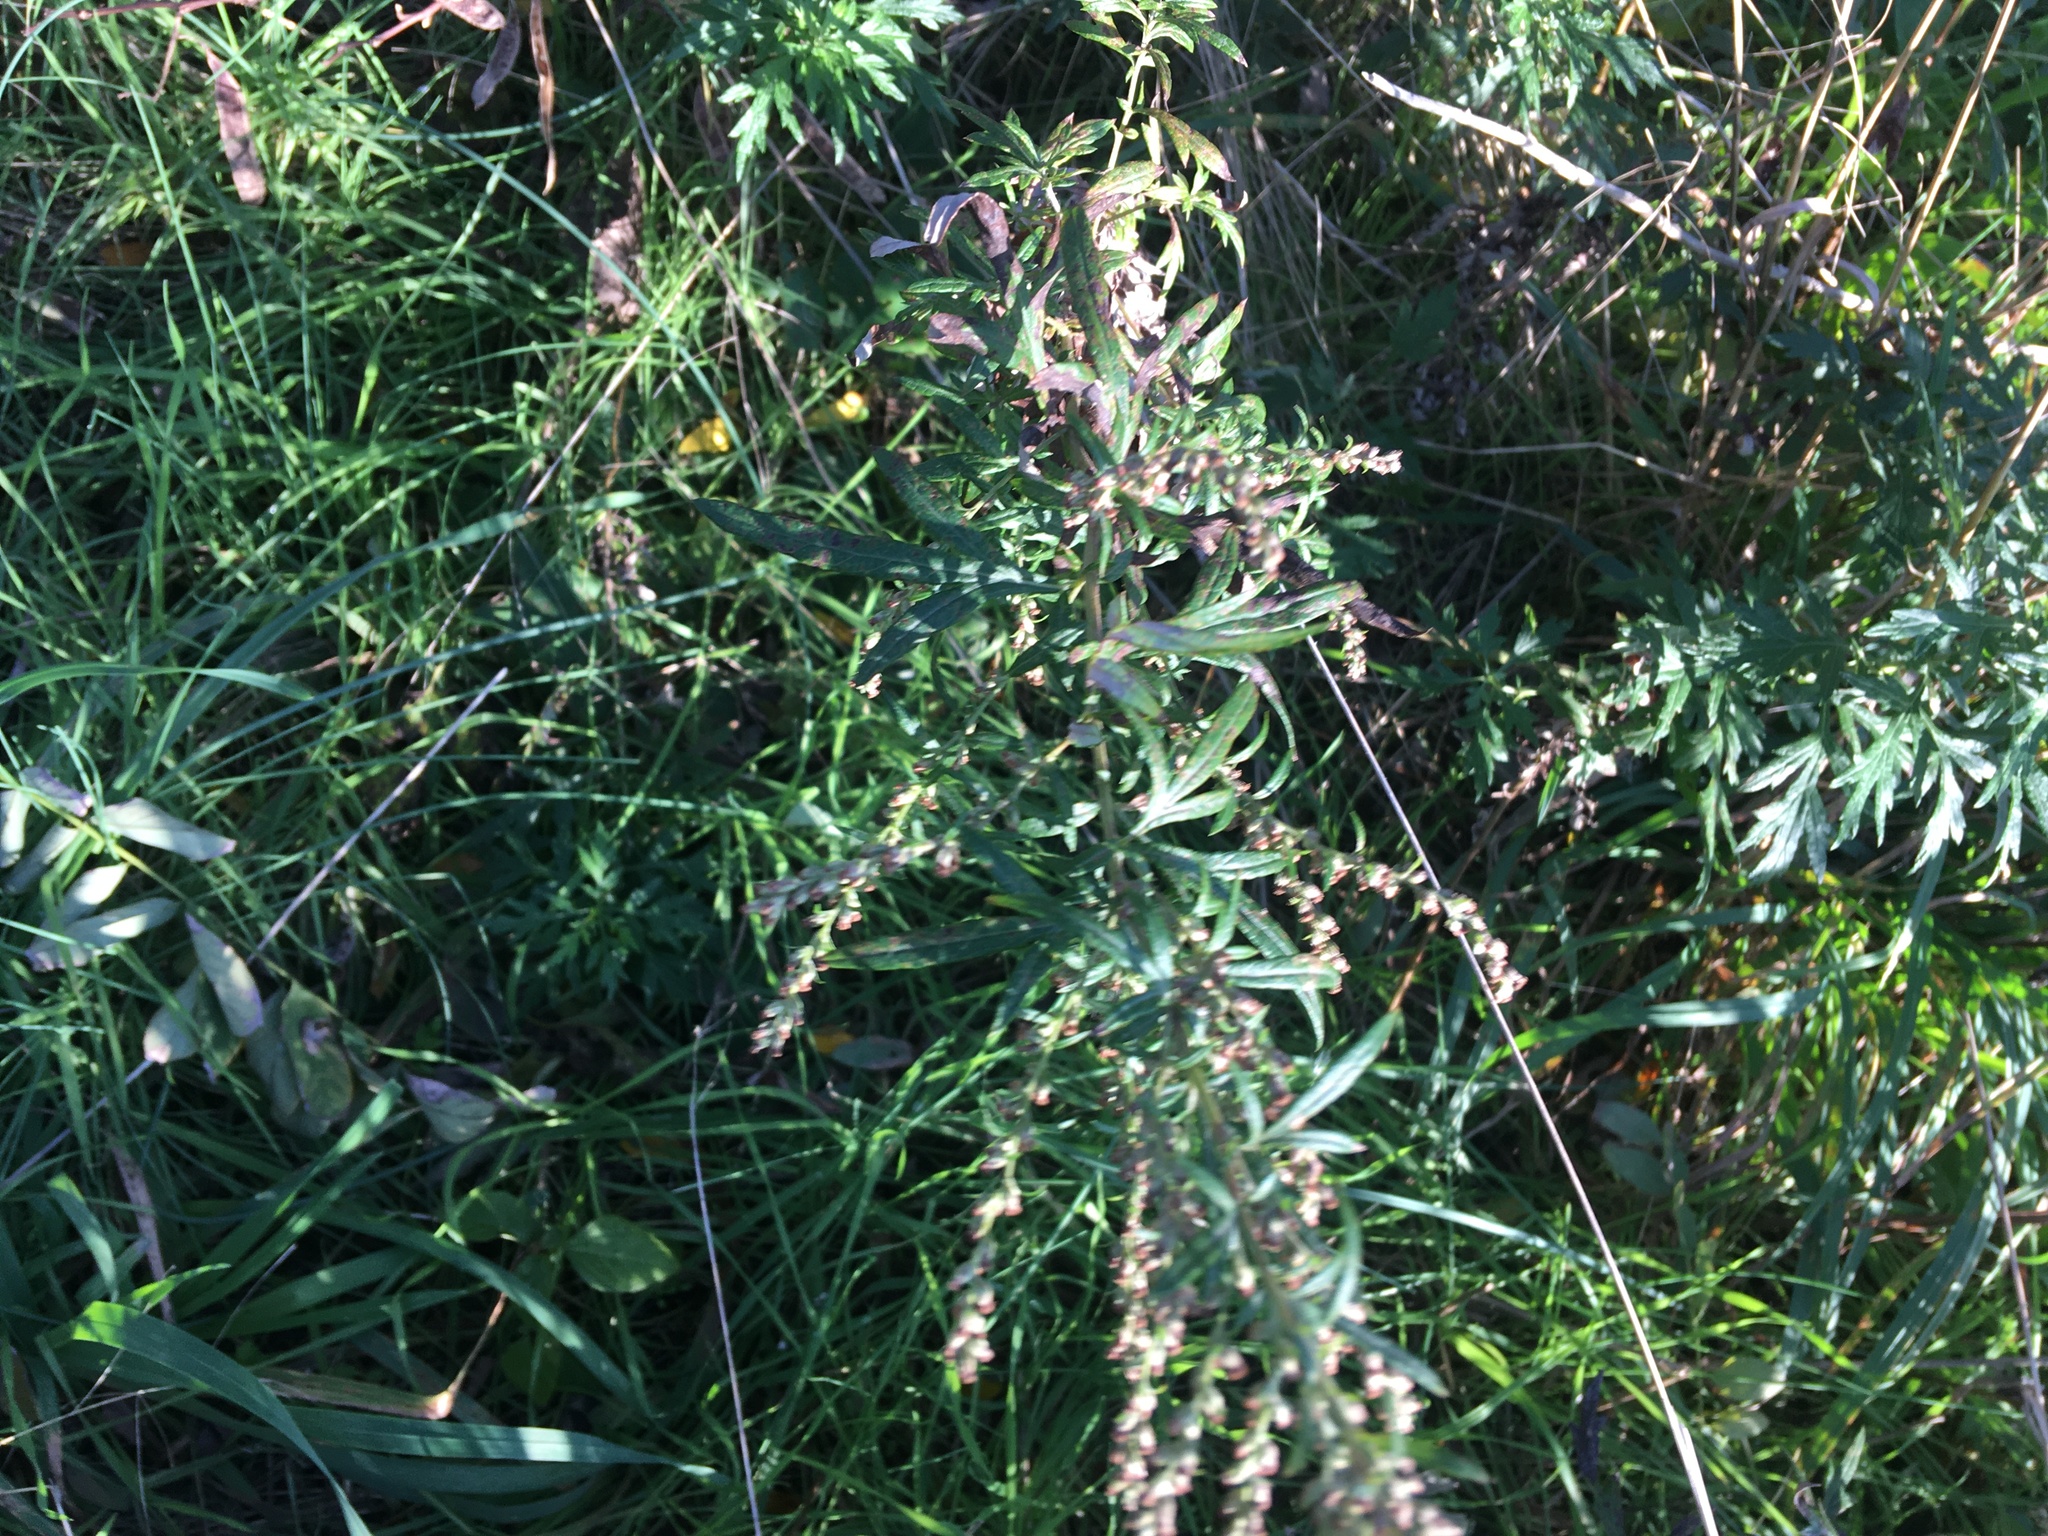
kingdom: Plantae
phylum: Tracheophyta
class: Magnoliopsida
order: Asterales
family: Asteraceae
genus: Artemisia
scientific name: Artemisia vulgaris
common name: Mugwort
